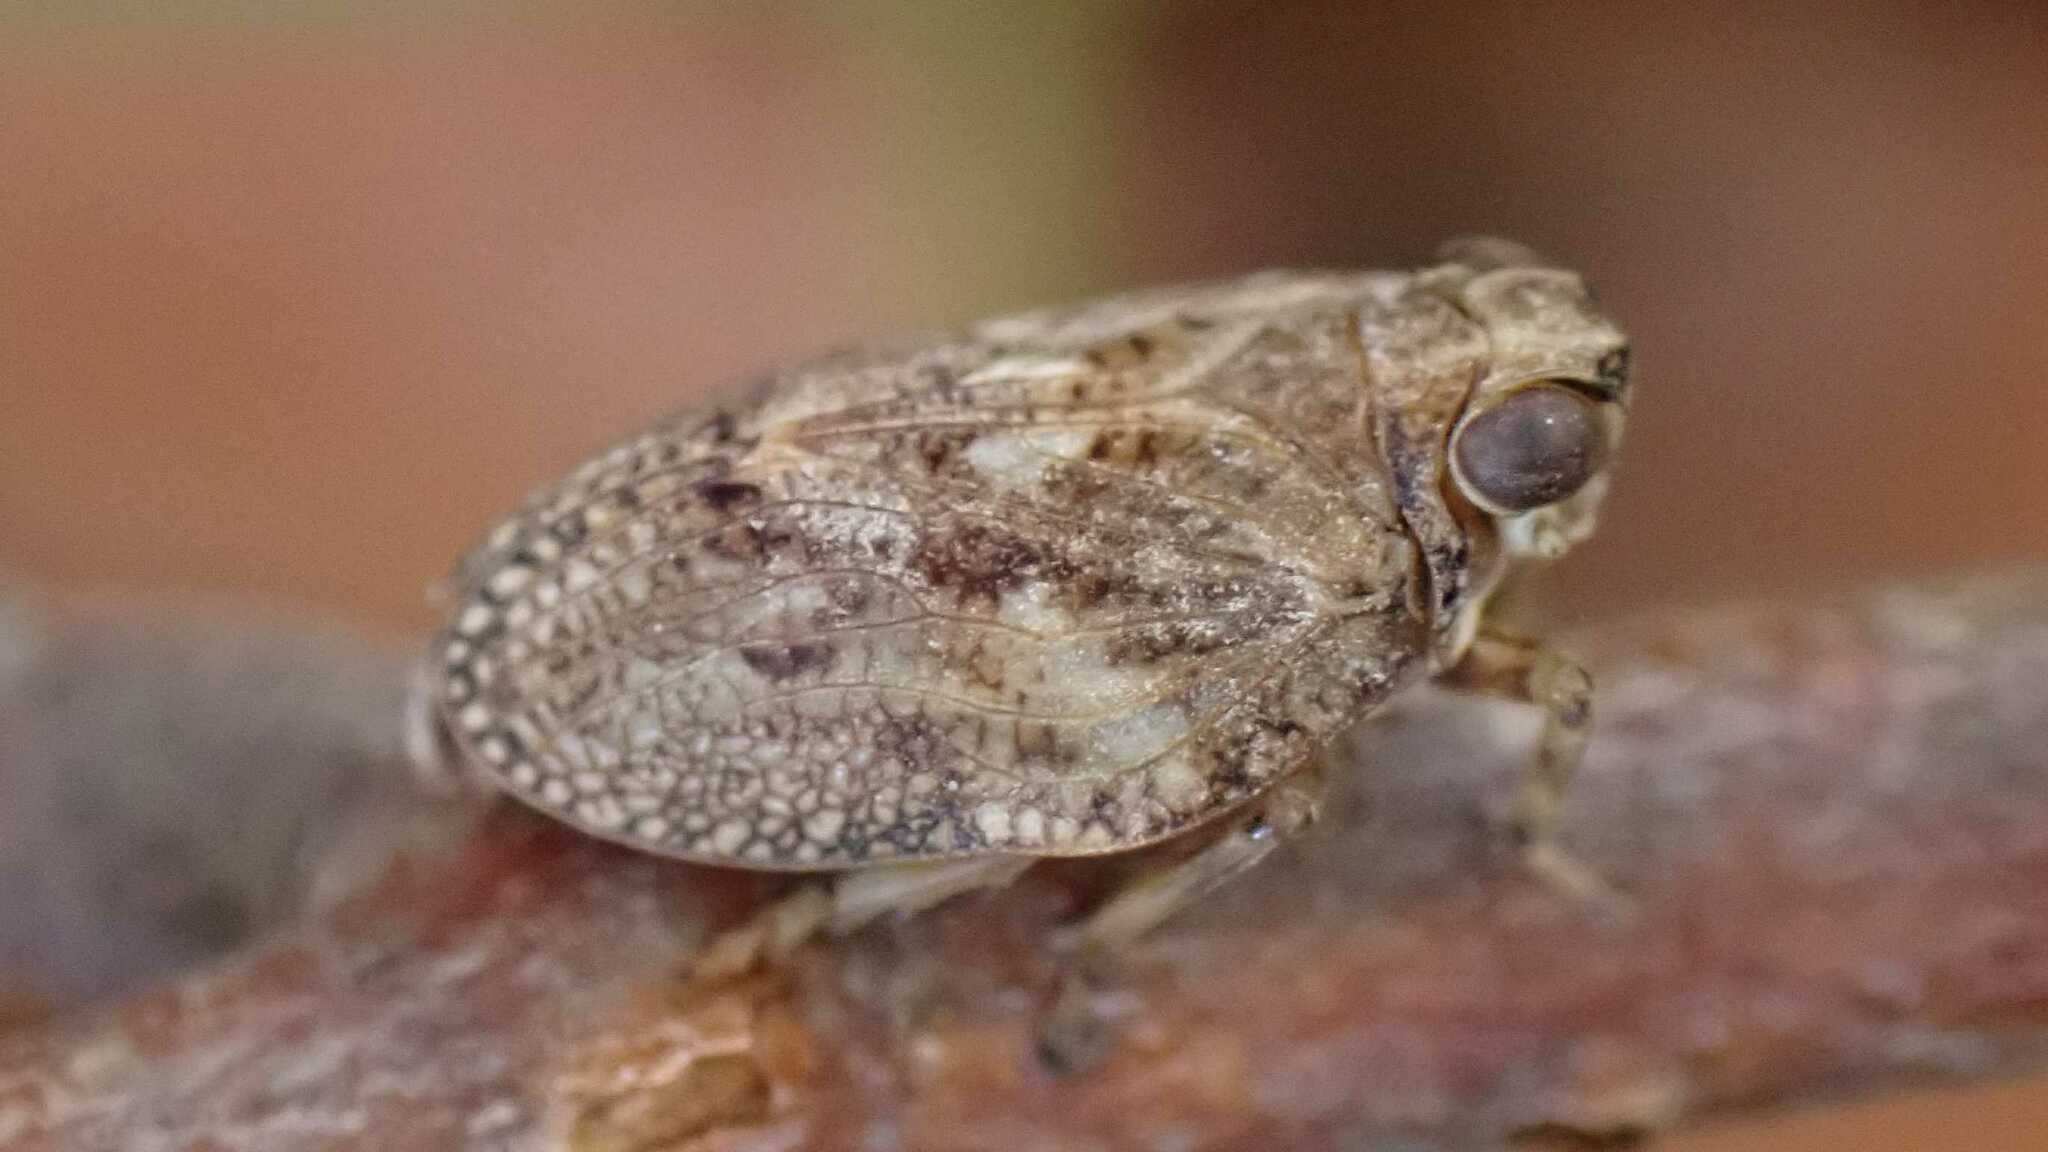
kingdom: Animalia
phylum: Arthropoda
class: Insecta
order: Hemiptera
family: Issidae
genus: Issus
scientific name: Issus coleoptratus
